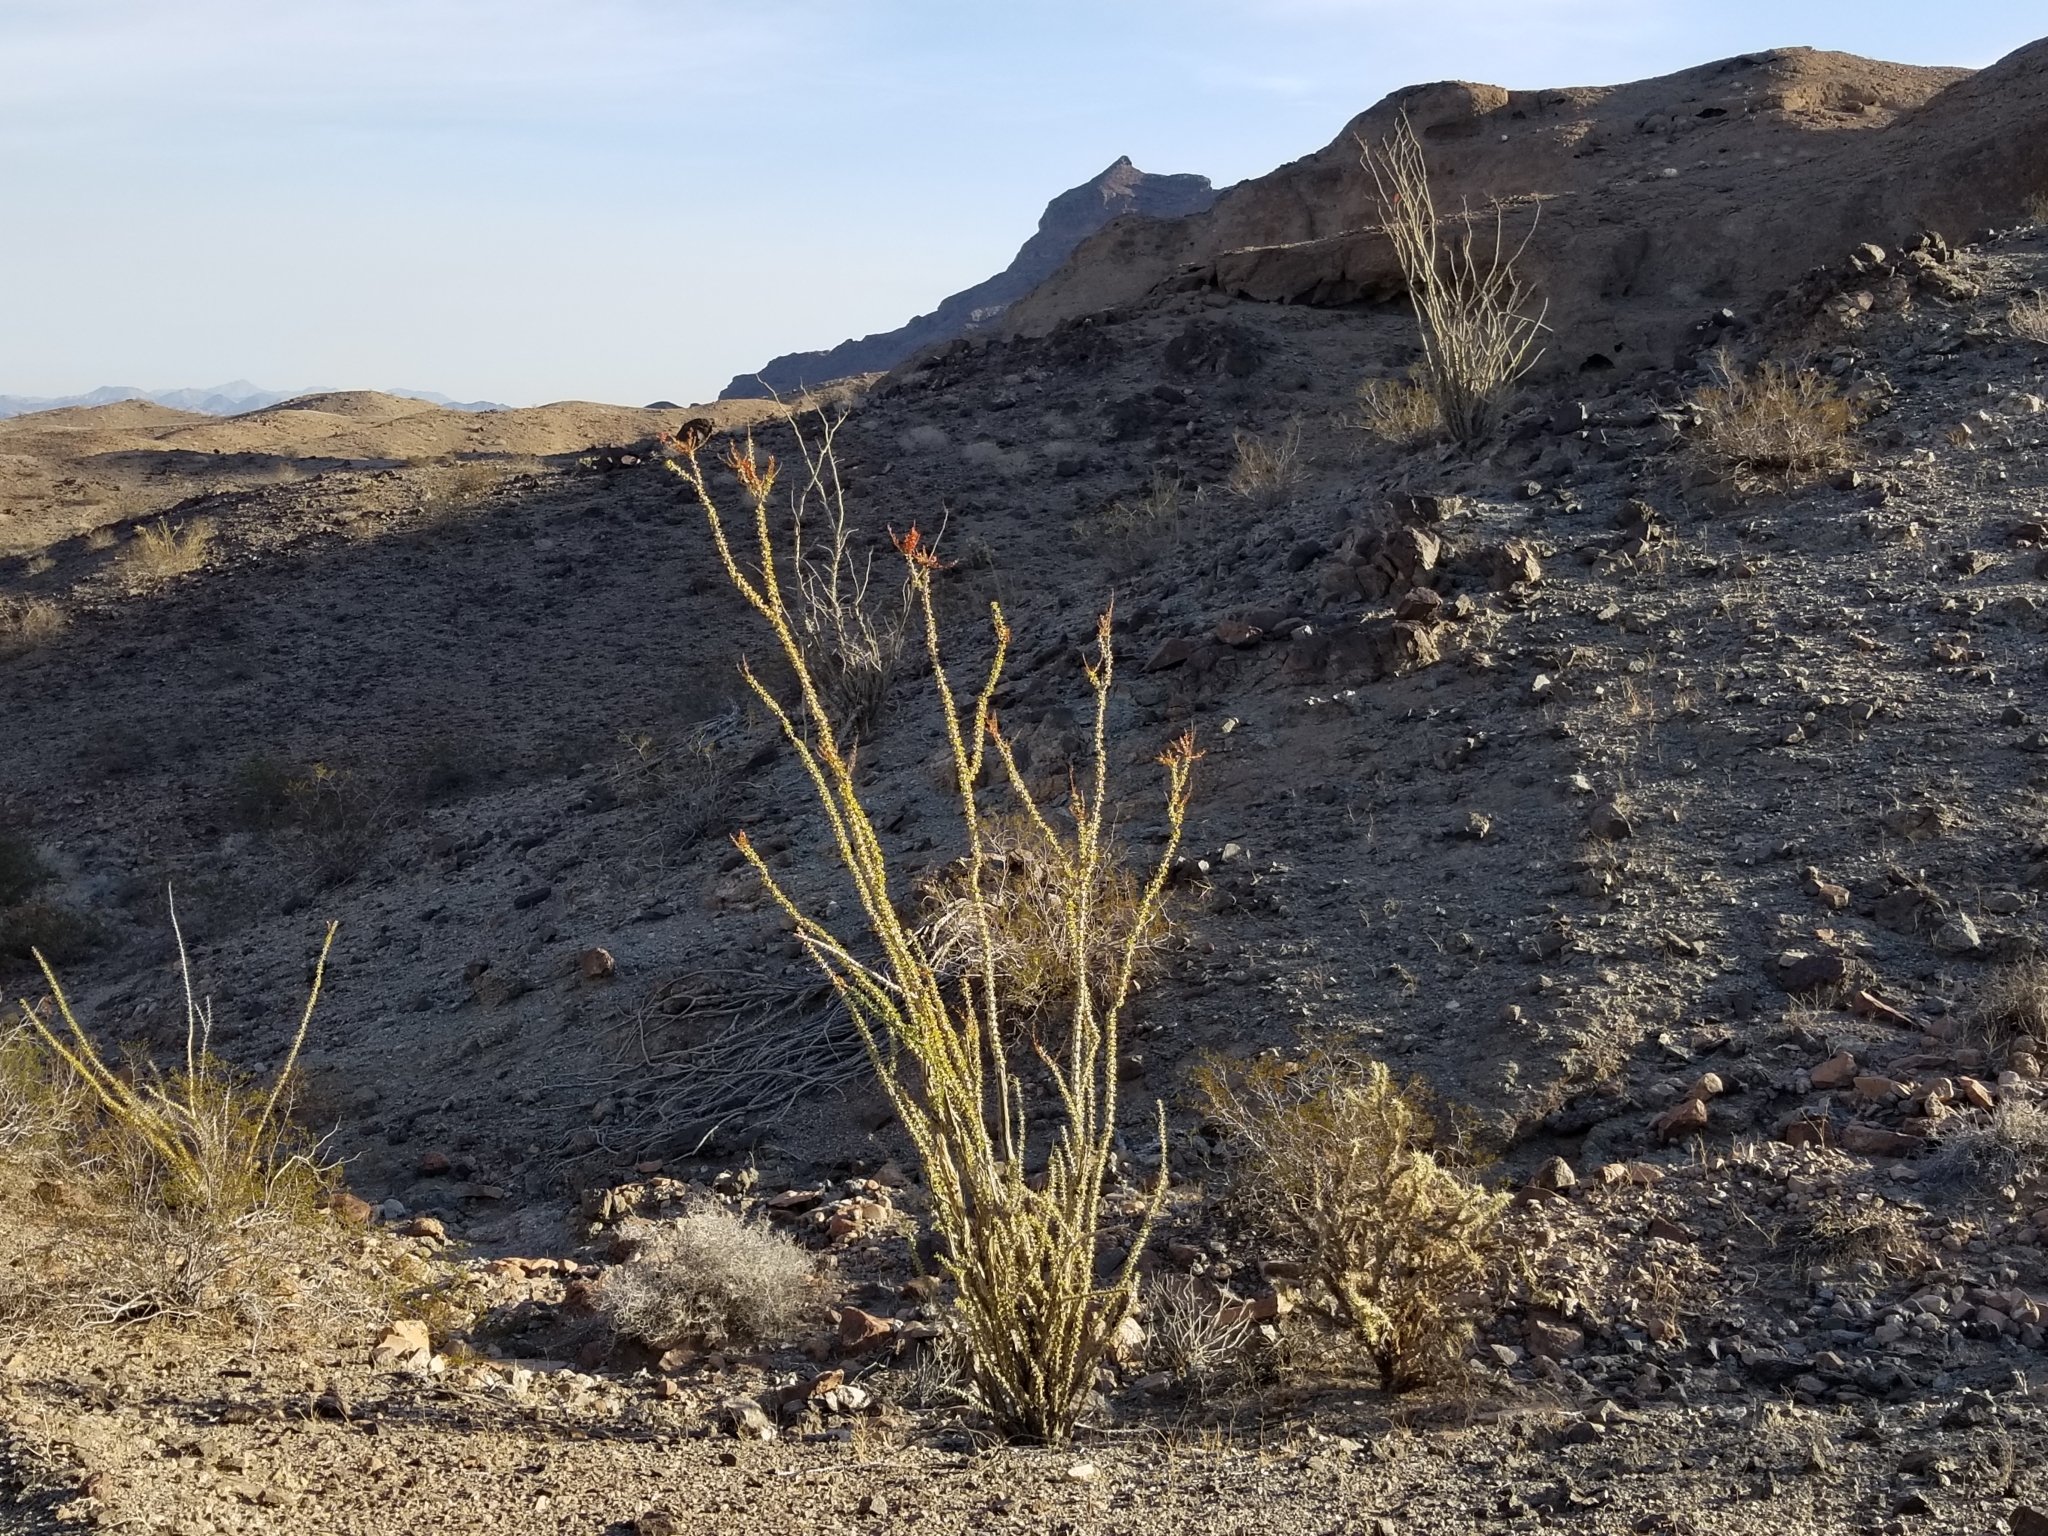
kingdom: Plantae
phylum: Tracheophyta
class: Magnoliopsida
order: Ericales
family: Fouquieriaceae
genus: Fouquieria
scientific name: Fouquieria splendens
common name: Vine-cactus
